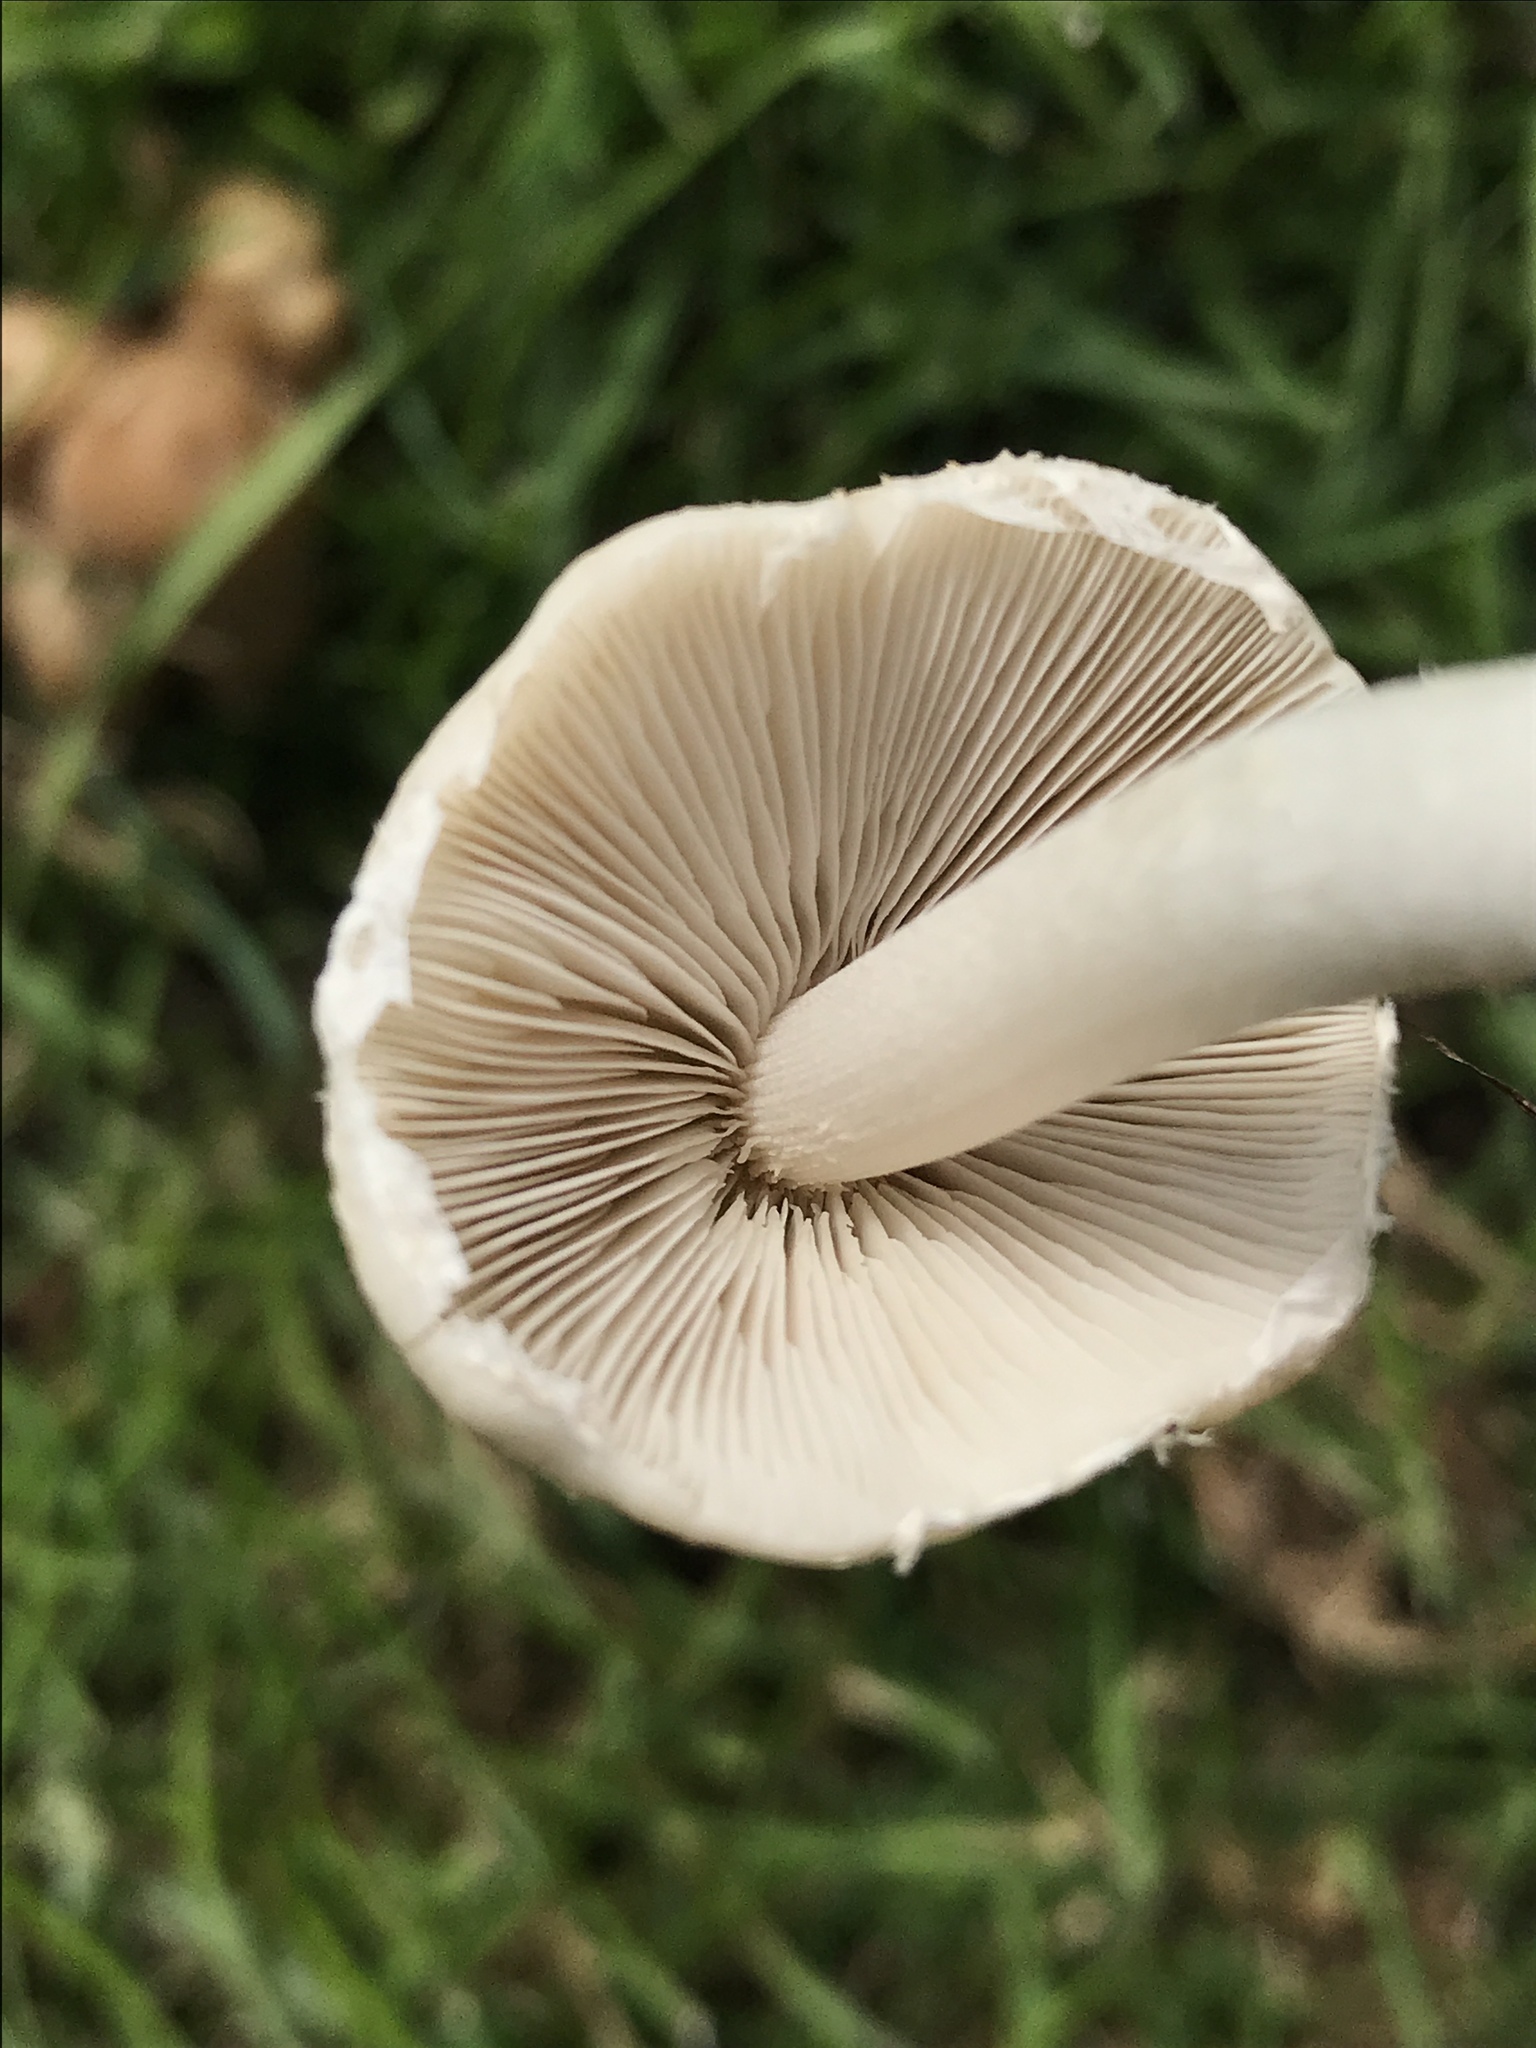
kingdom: Fungi
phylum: Basidiomycota
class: Agaricomycetes
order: Agaricales
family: Psathyrellaceae
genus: Candolleomyces
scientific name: Candolleomyces candolleanus
